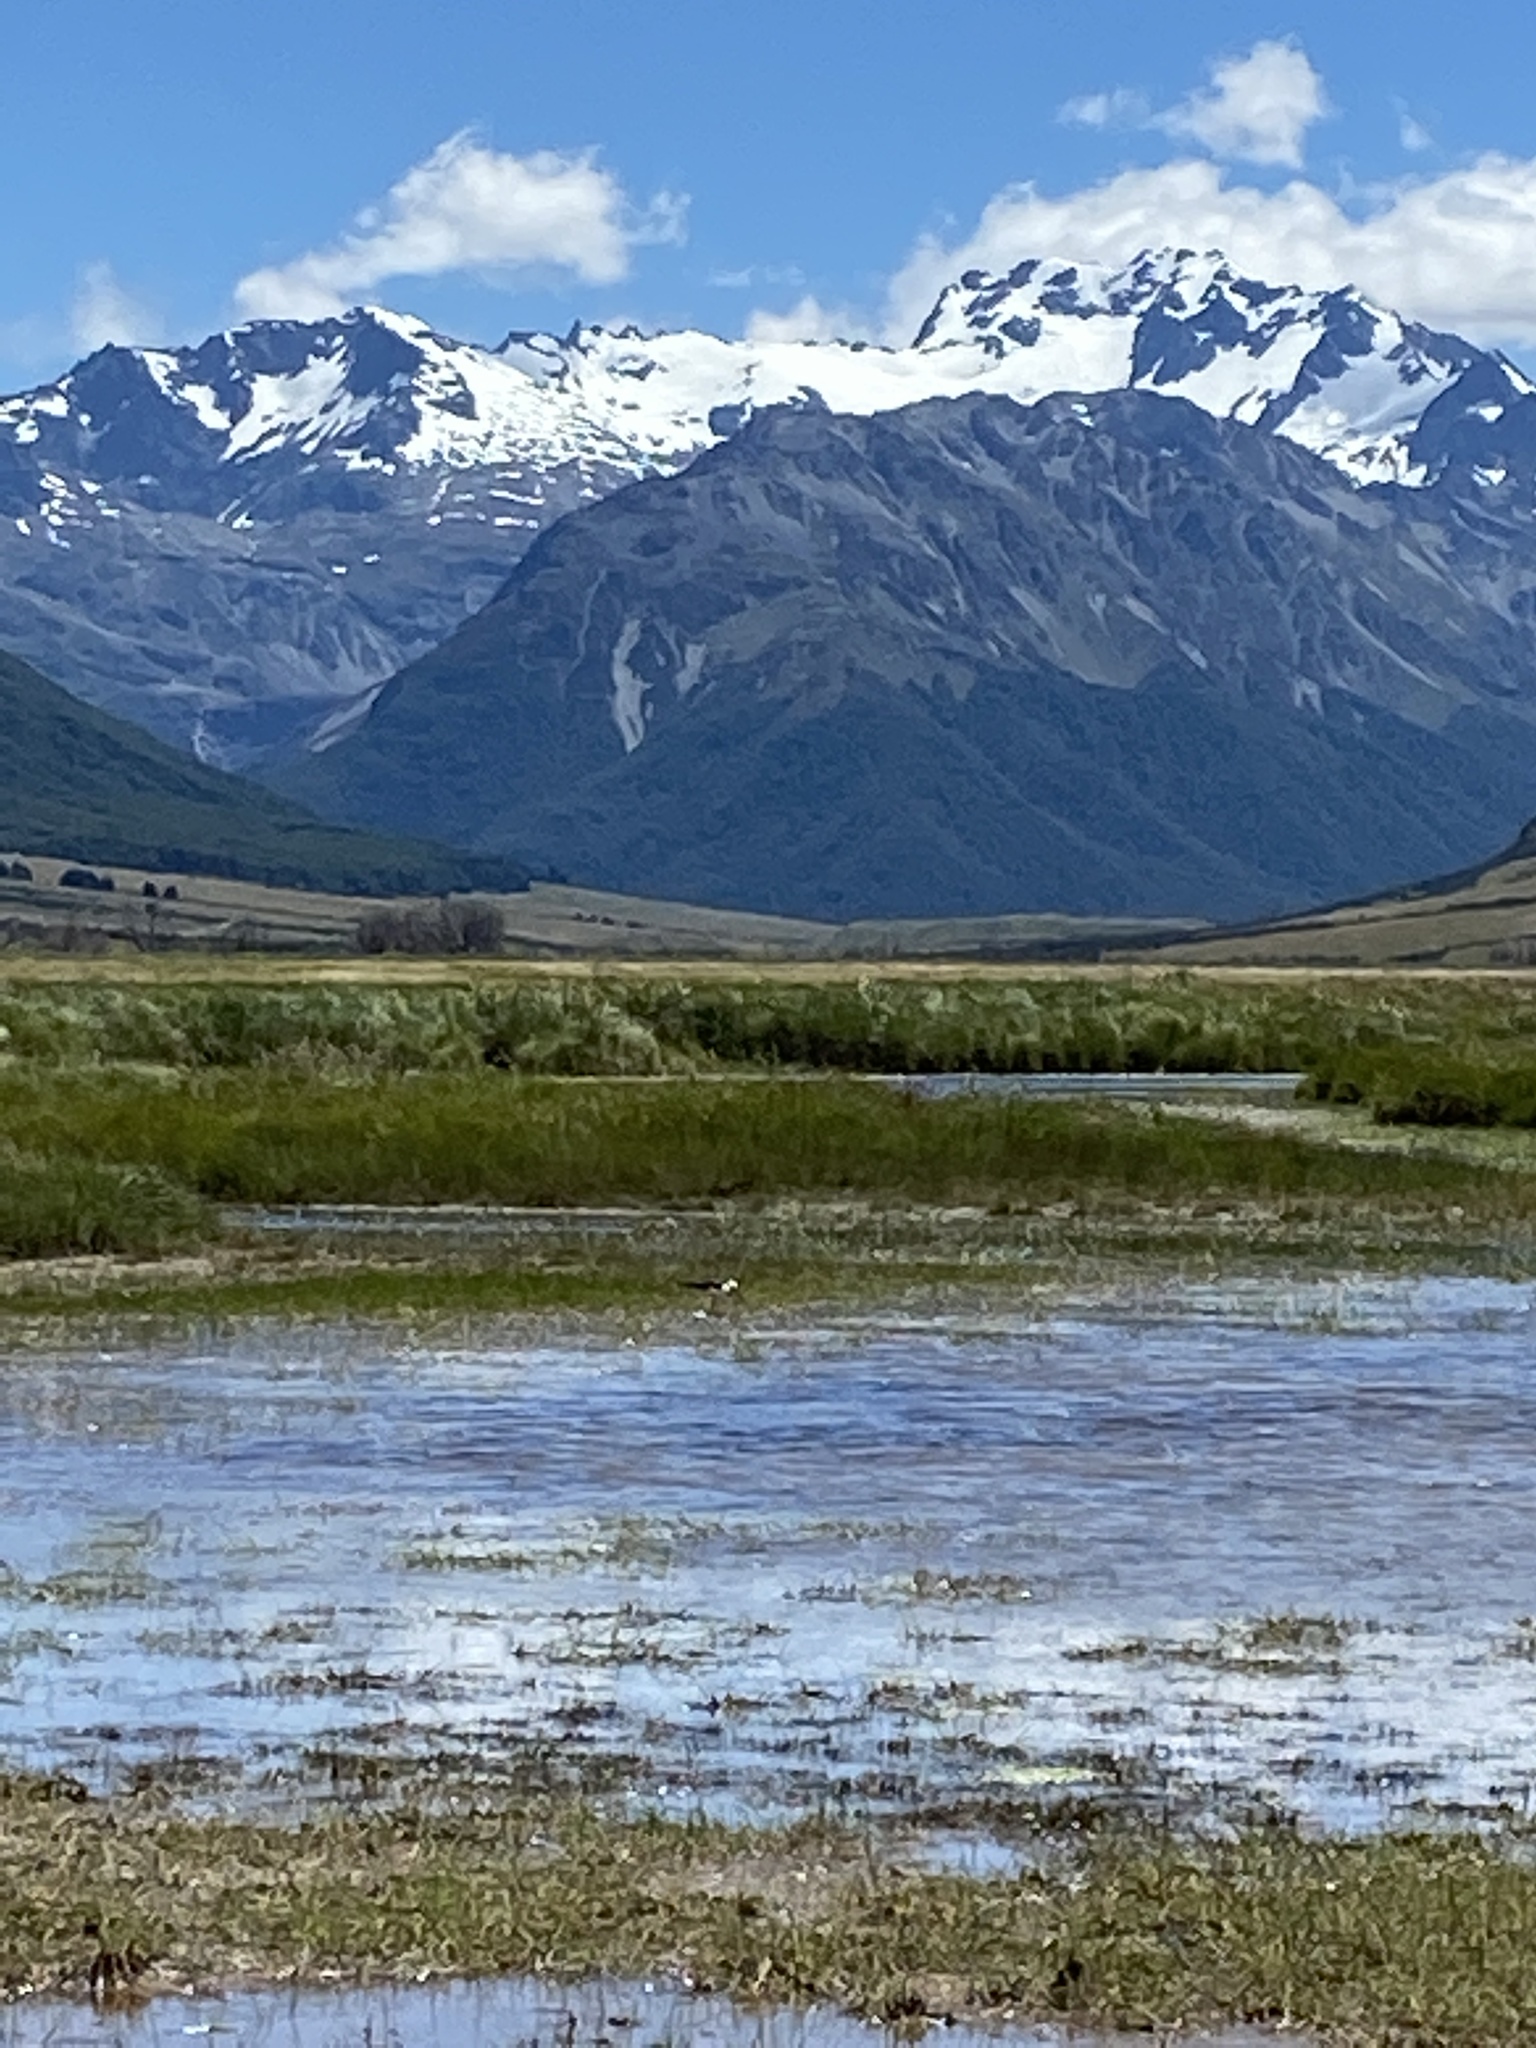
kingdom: Animalia
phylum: Chordata
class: Aves
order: Charadriiformes
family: Recurvirostridae
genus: Himantopus
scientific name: Himantopus leucocephalus
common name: White-headed stilt
